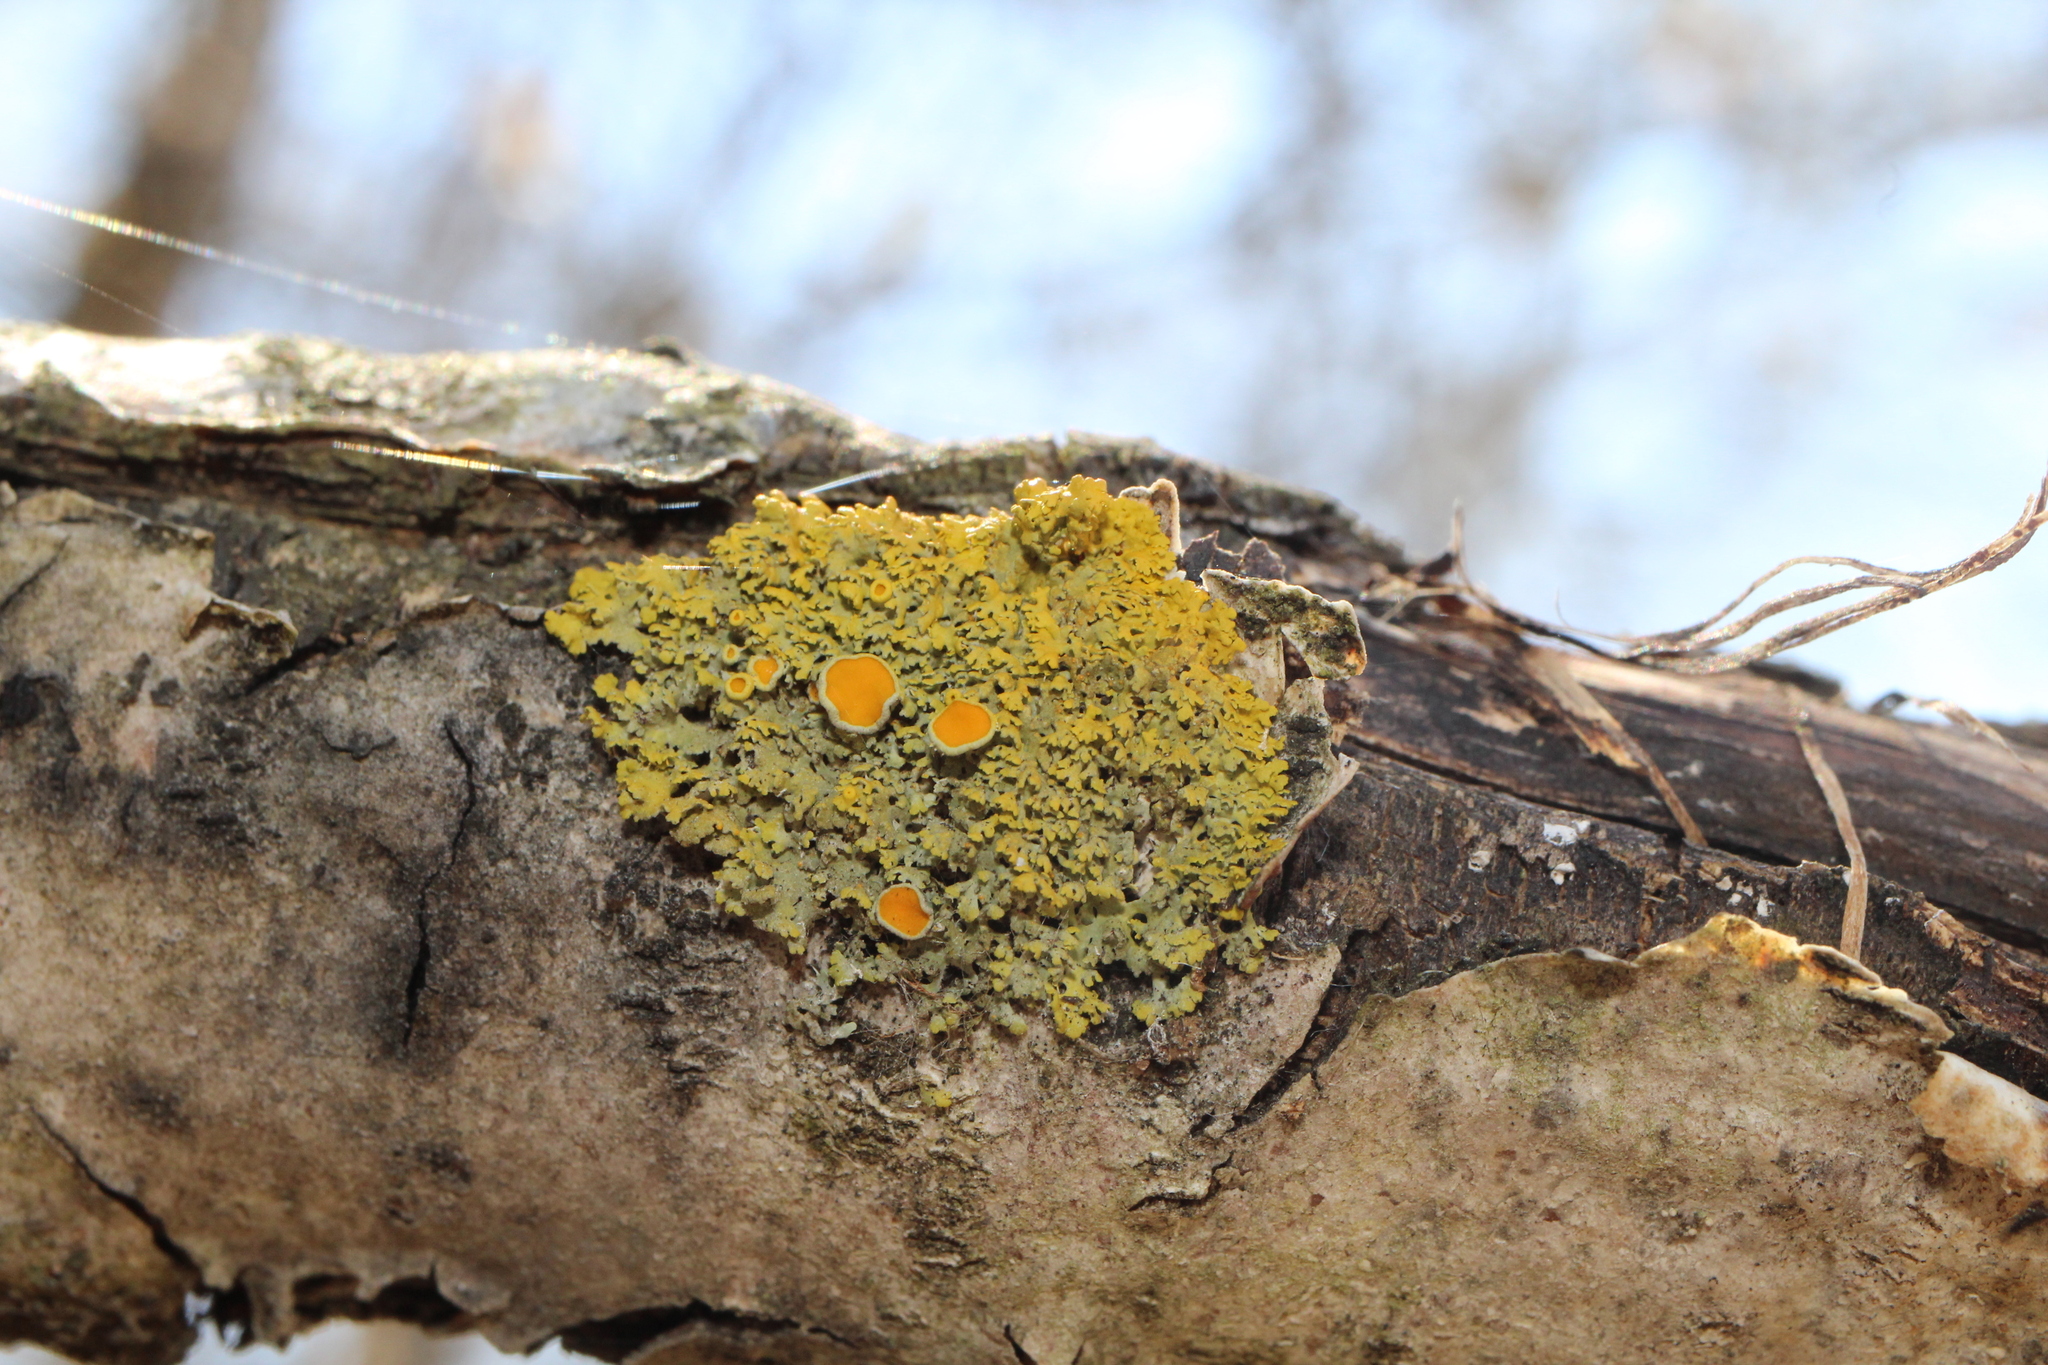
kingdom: Fungi
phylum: Ascomycota
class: Lecanoromycetes
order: Teloschistales
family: Teloschistaceae
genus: Gallowayella
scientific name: Gallowayella hasseana
